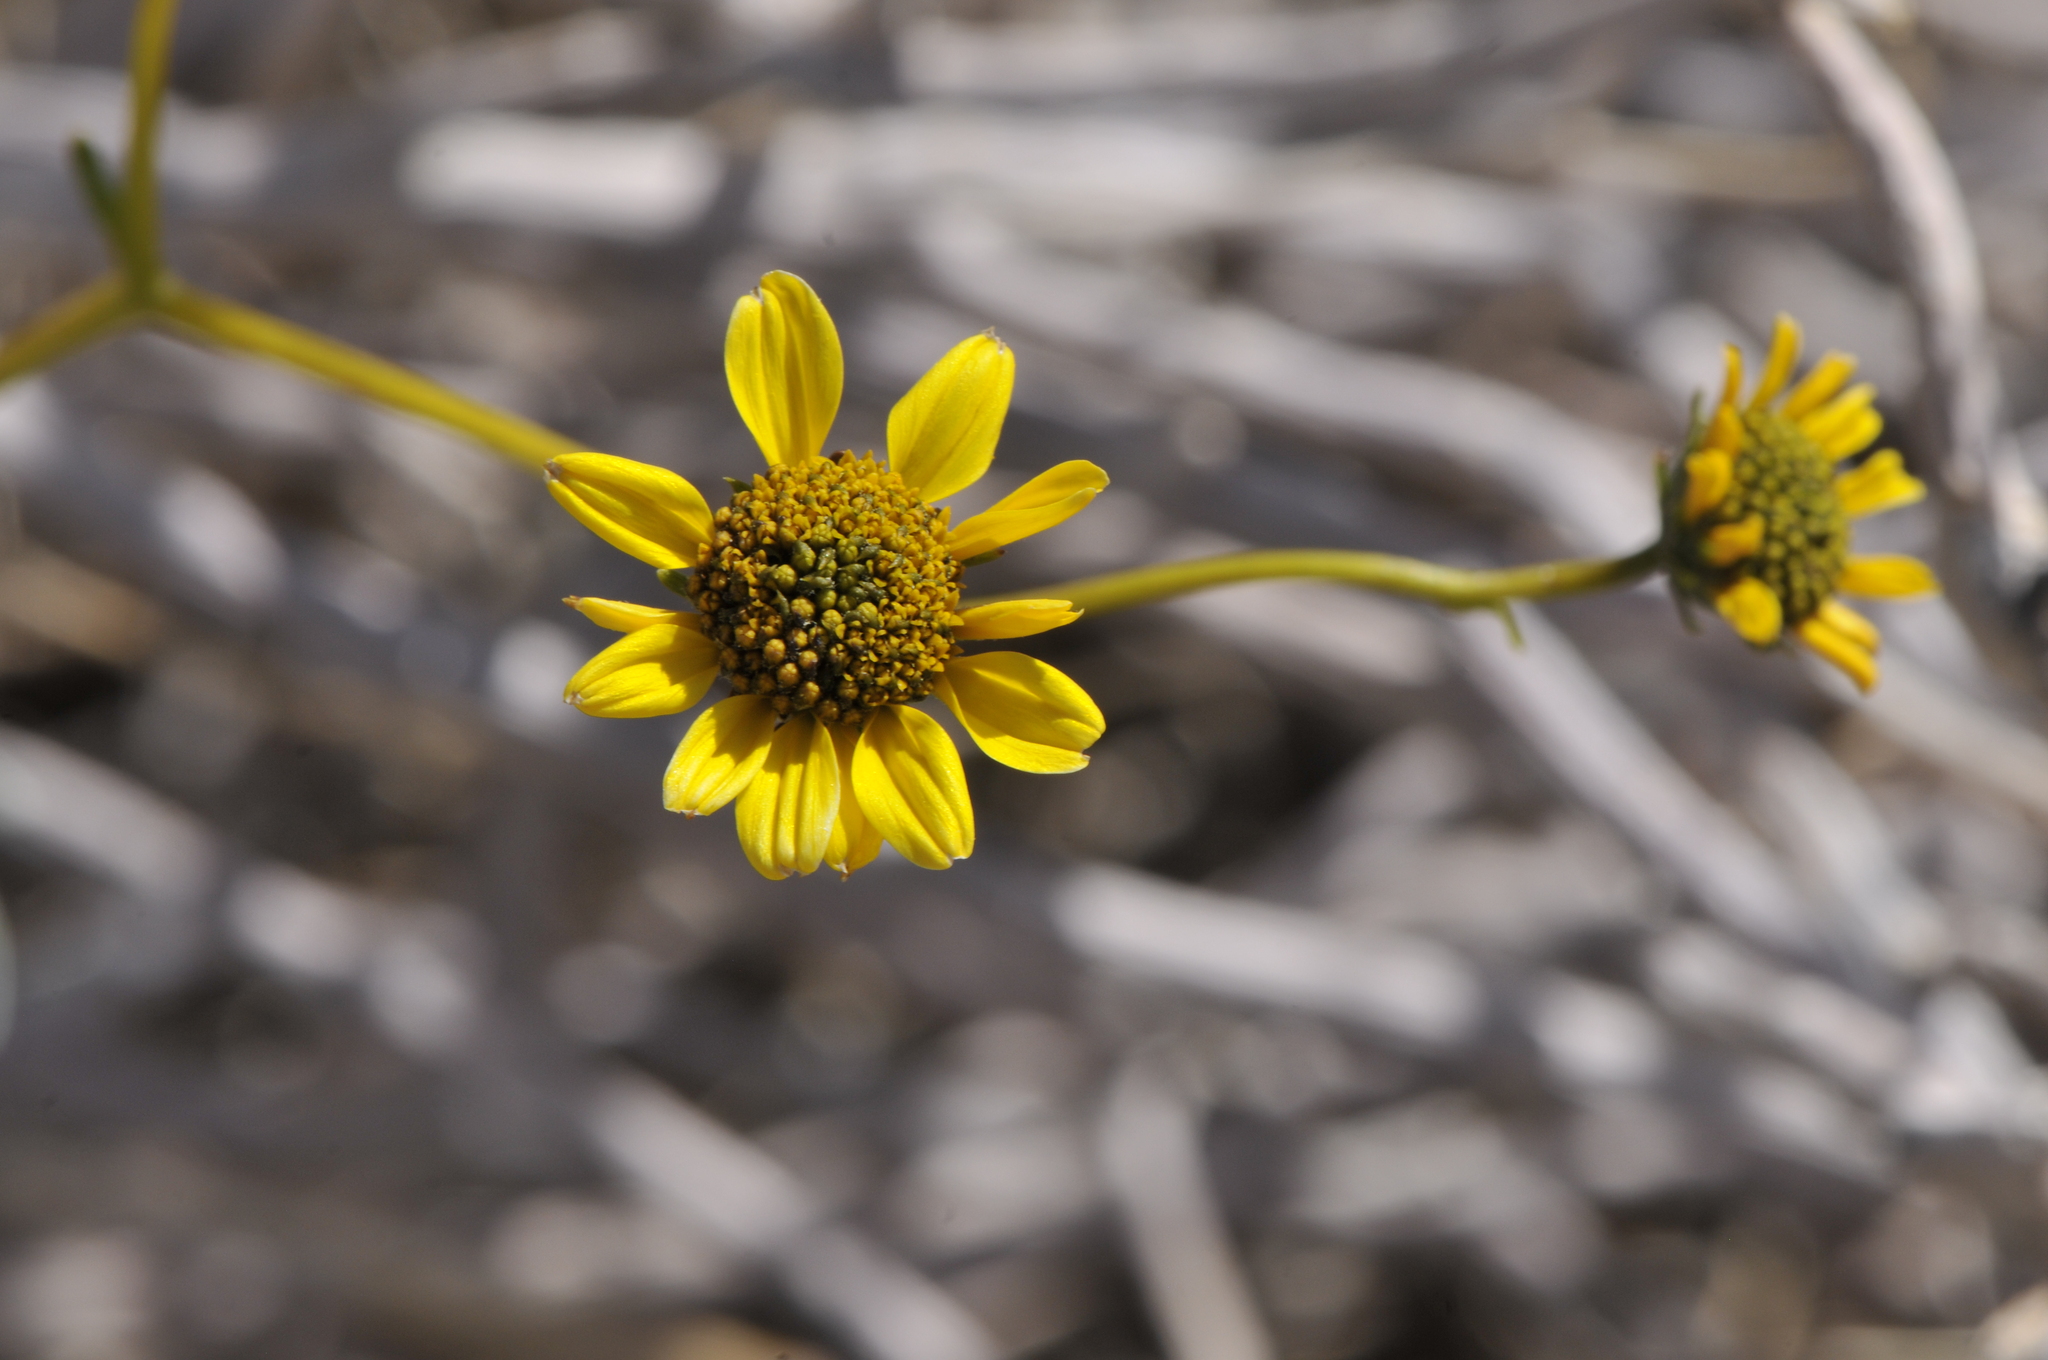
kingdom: Plantae
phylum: Tracheophyta
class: Magnoliopsida
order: Asterales
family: Asteraceae
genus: Encelia
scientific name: Encelia farinosa
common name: Brittlebush
